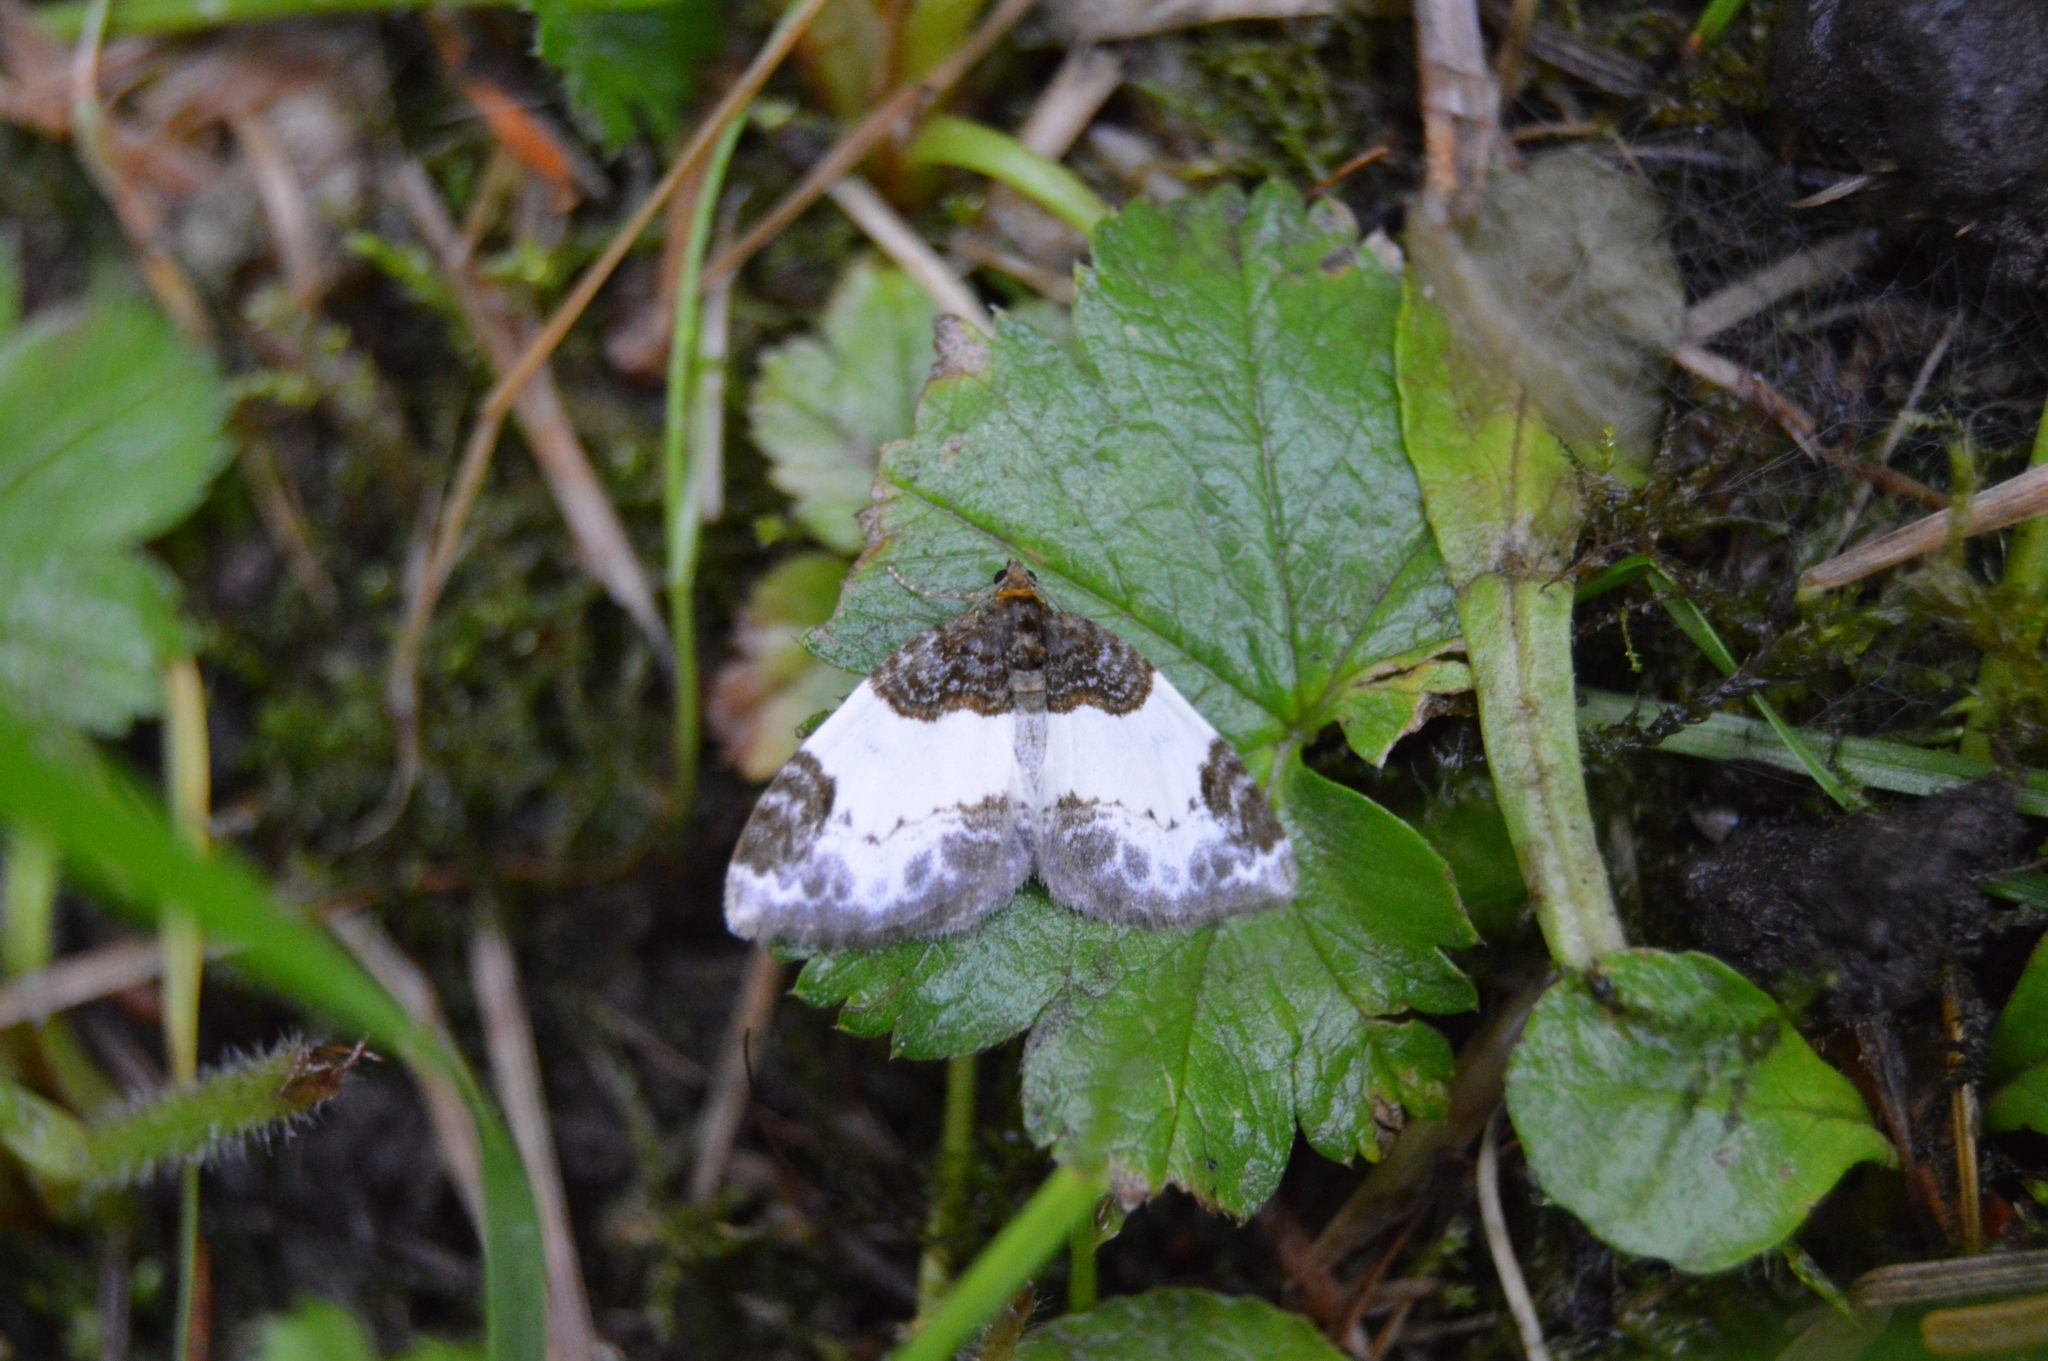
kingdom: Animalia
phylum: Arthropoda
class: Insecta
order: Lepidoptera
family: Geometridae
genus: Mesoleuca
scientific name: Mesoleuca albicillata
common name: Beautiful carpet
